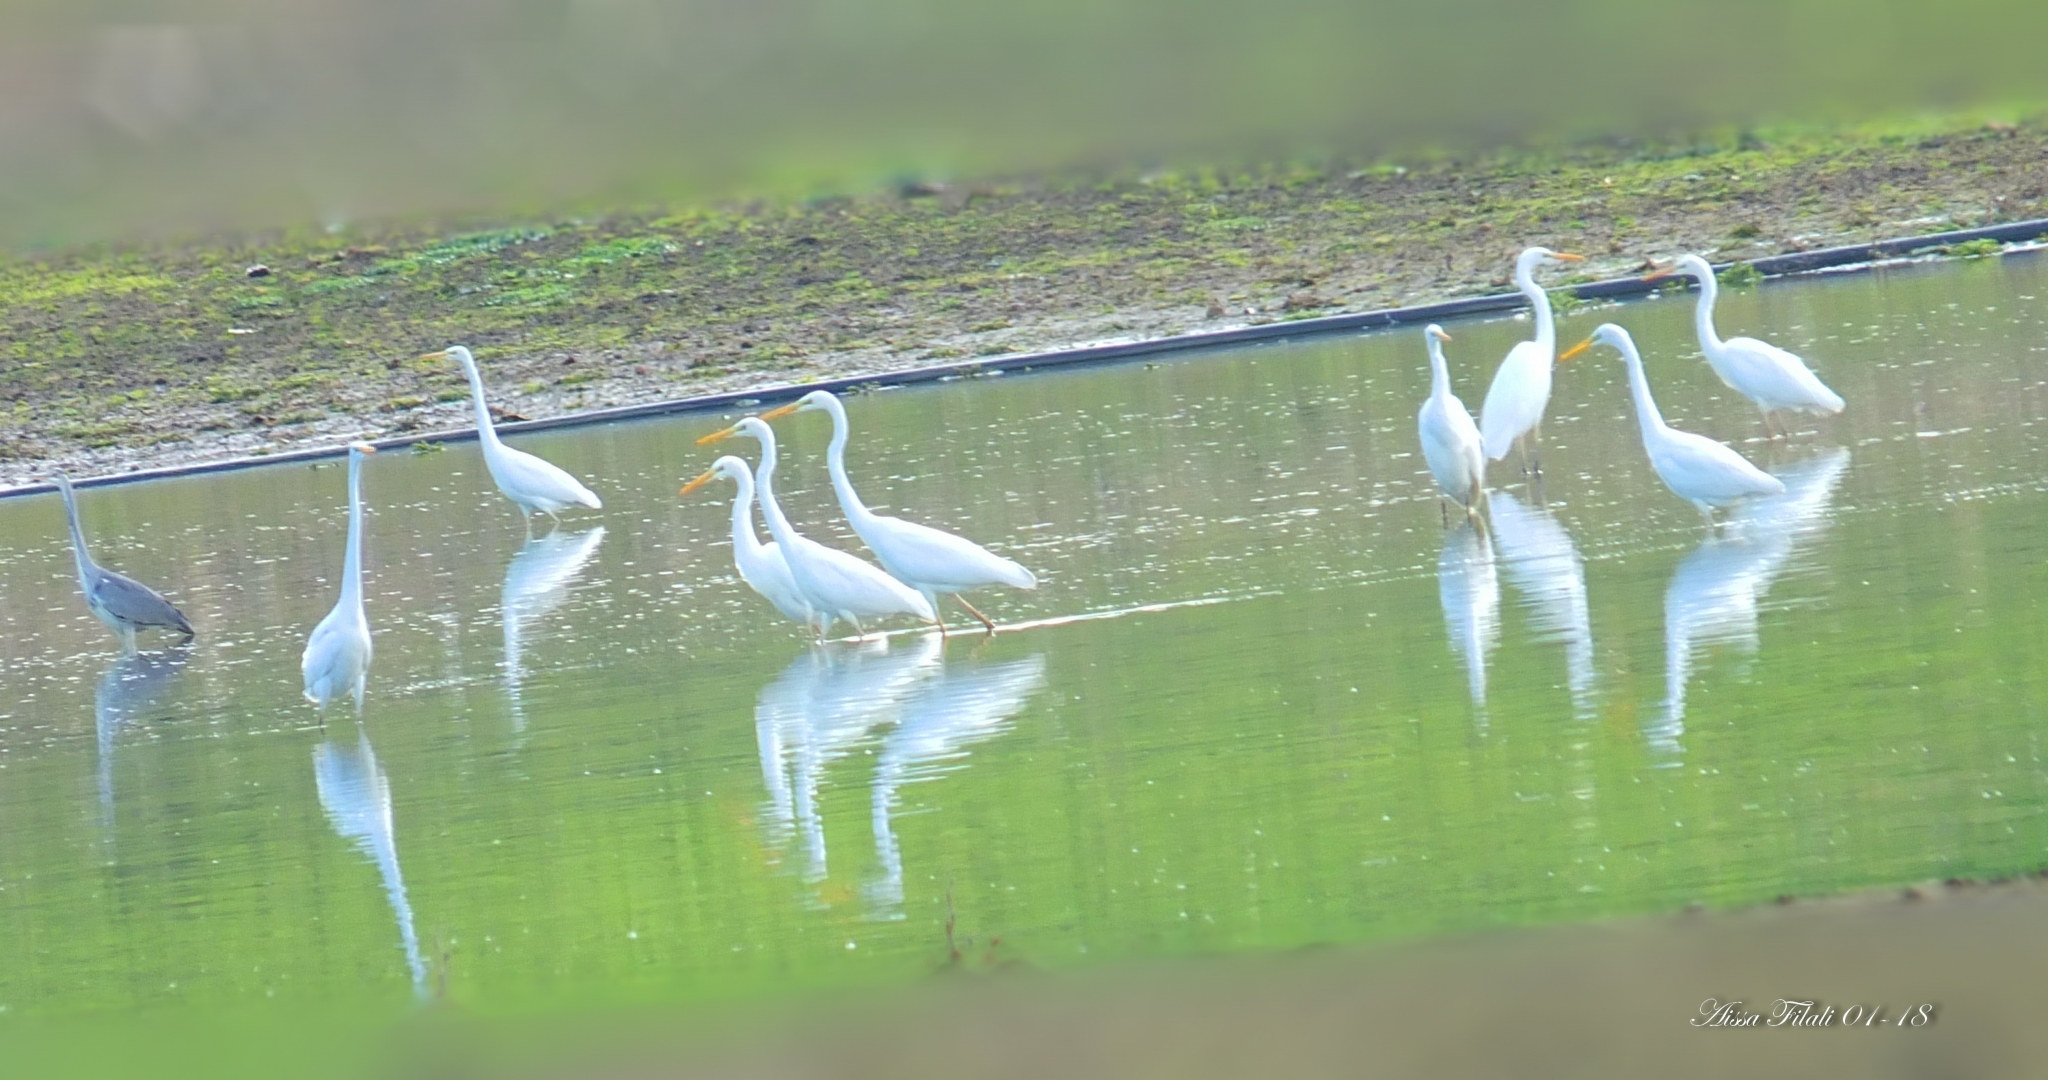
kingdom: Animalia
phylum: Chordata
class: Aves
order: Pelecaniformes
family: Ardeidae
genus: Ardea
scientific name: Ardea alba
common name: Great egret
